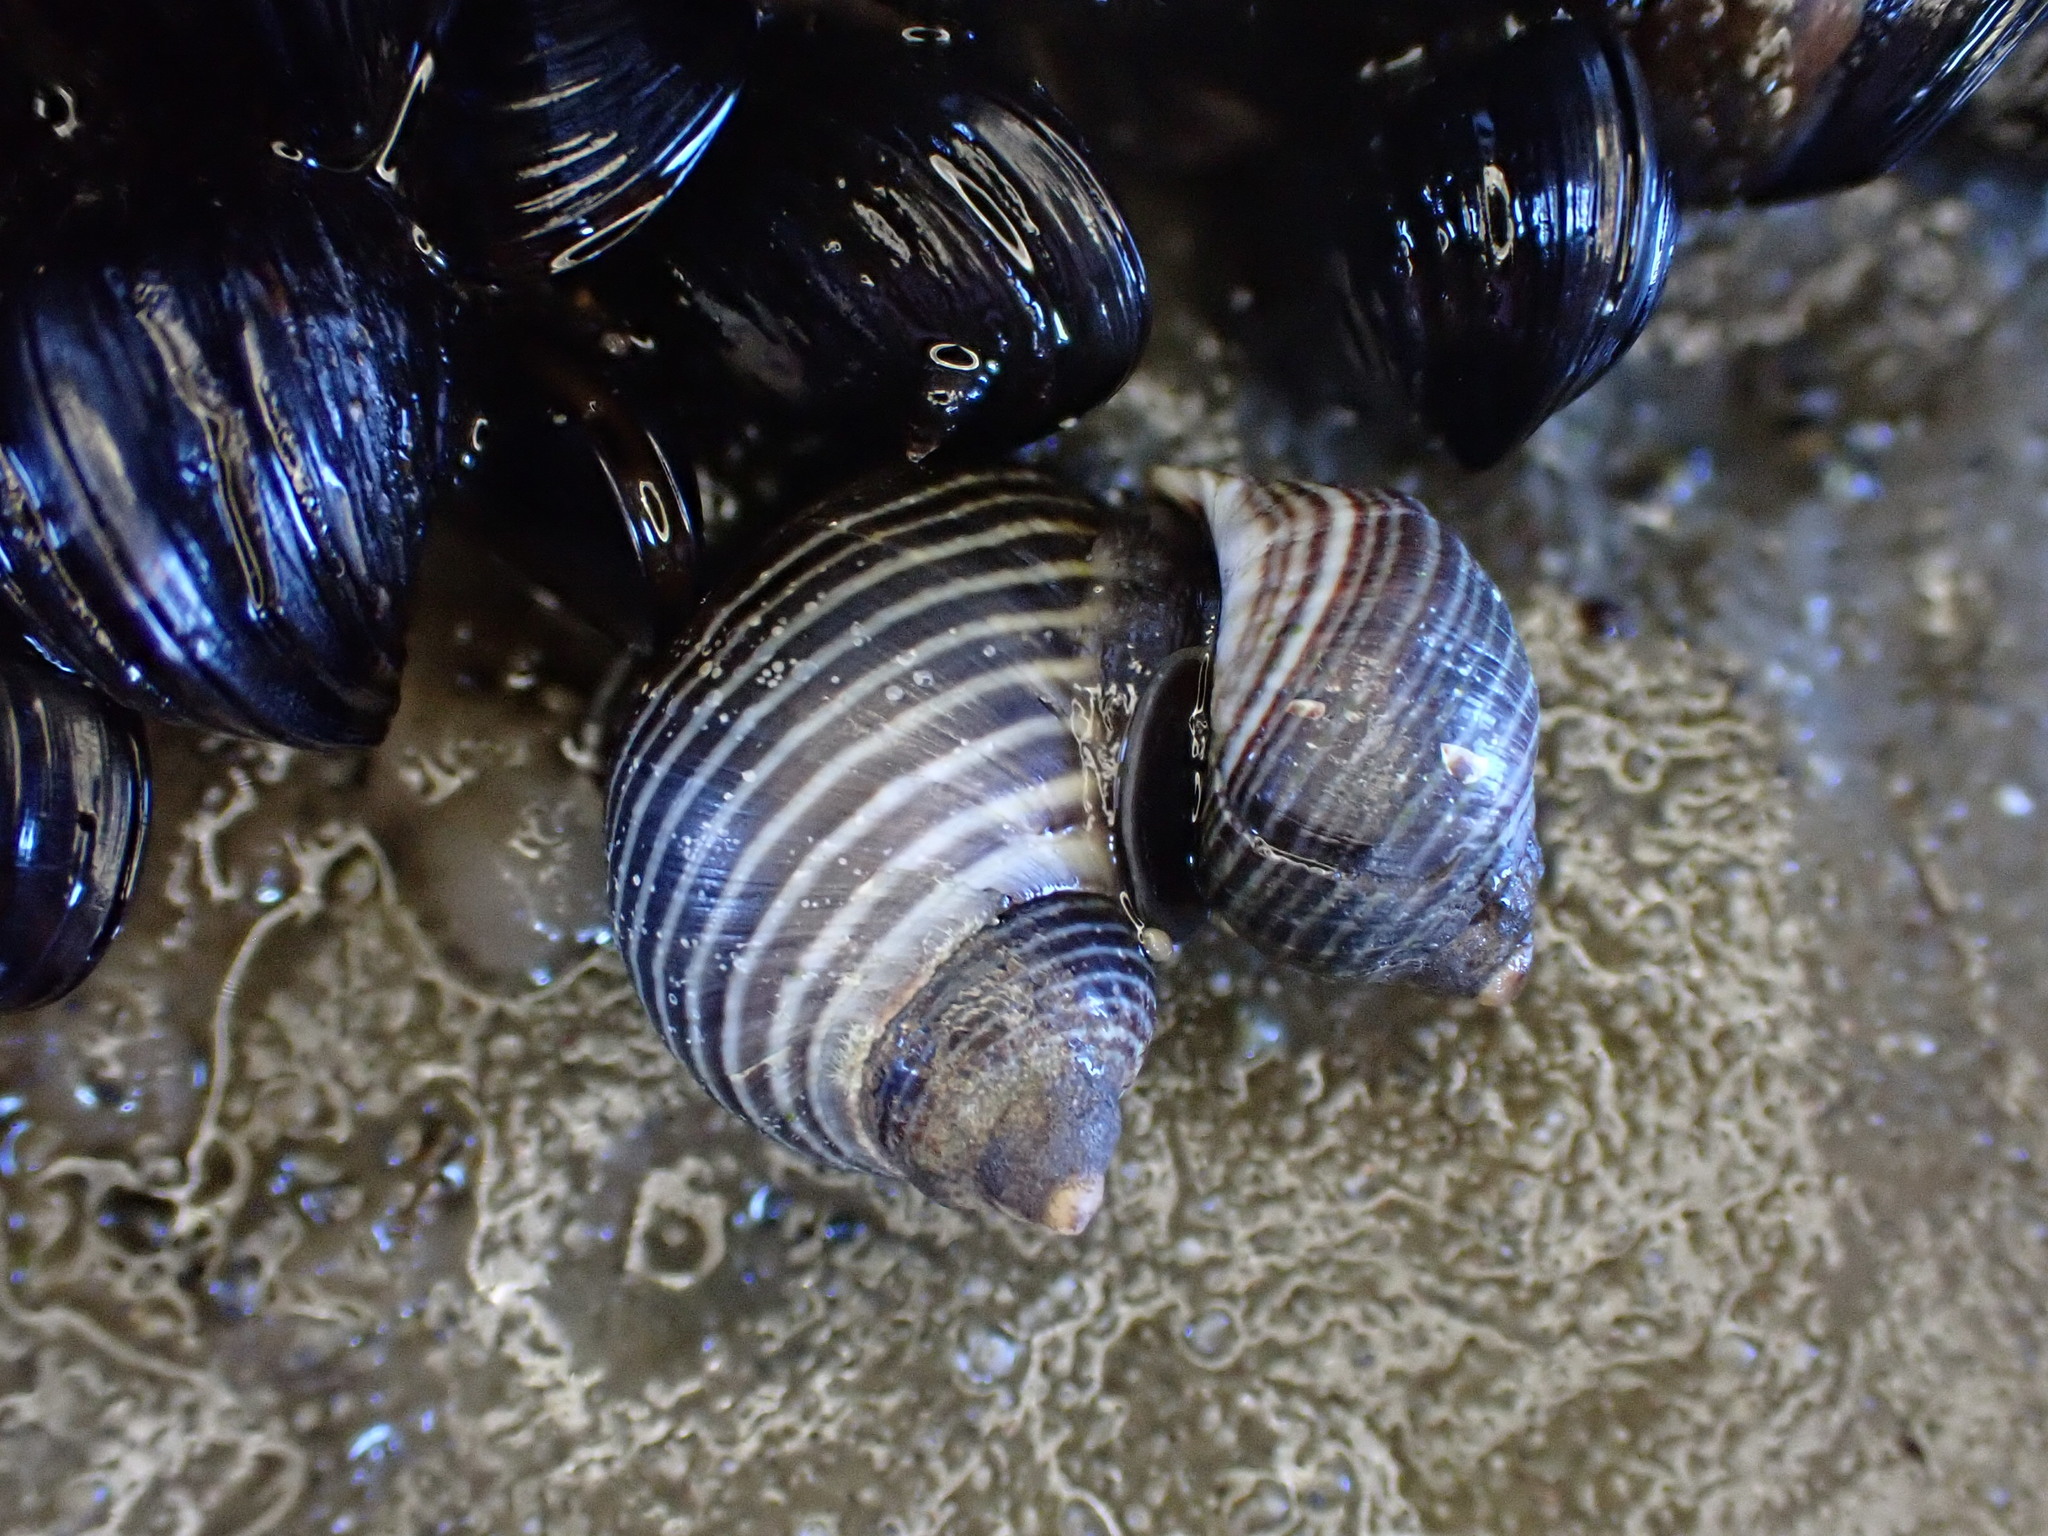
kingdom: Animalia
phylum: Mollusca
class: Gastropoda
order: Littorinimorpha
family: Littorinidae
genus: Austrolittorina
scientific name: Austrolittorina cincta
